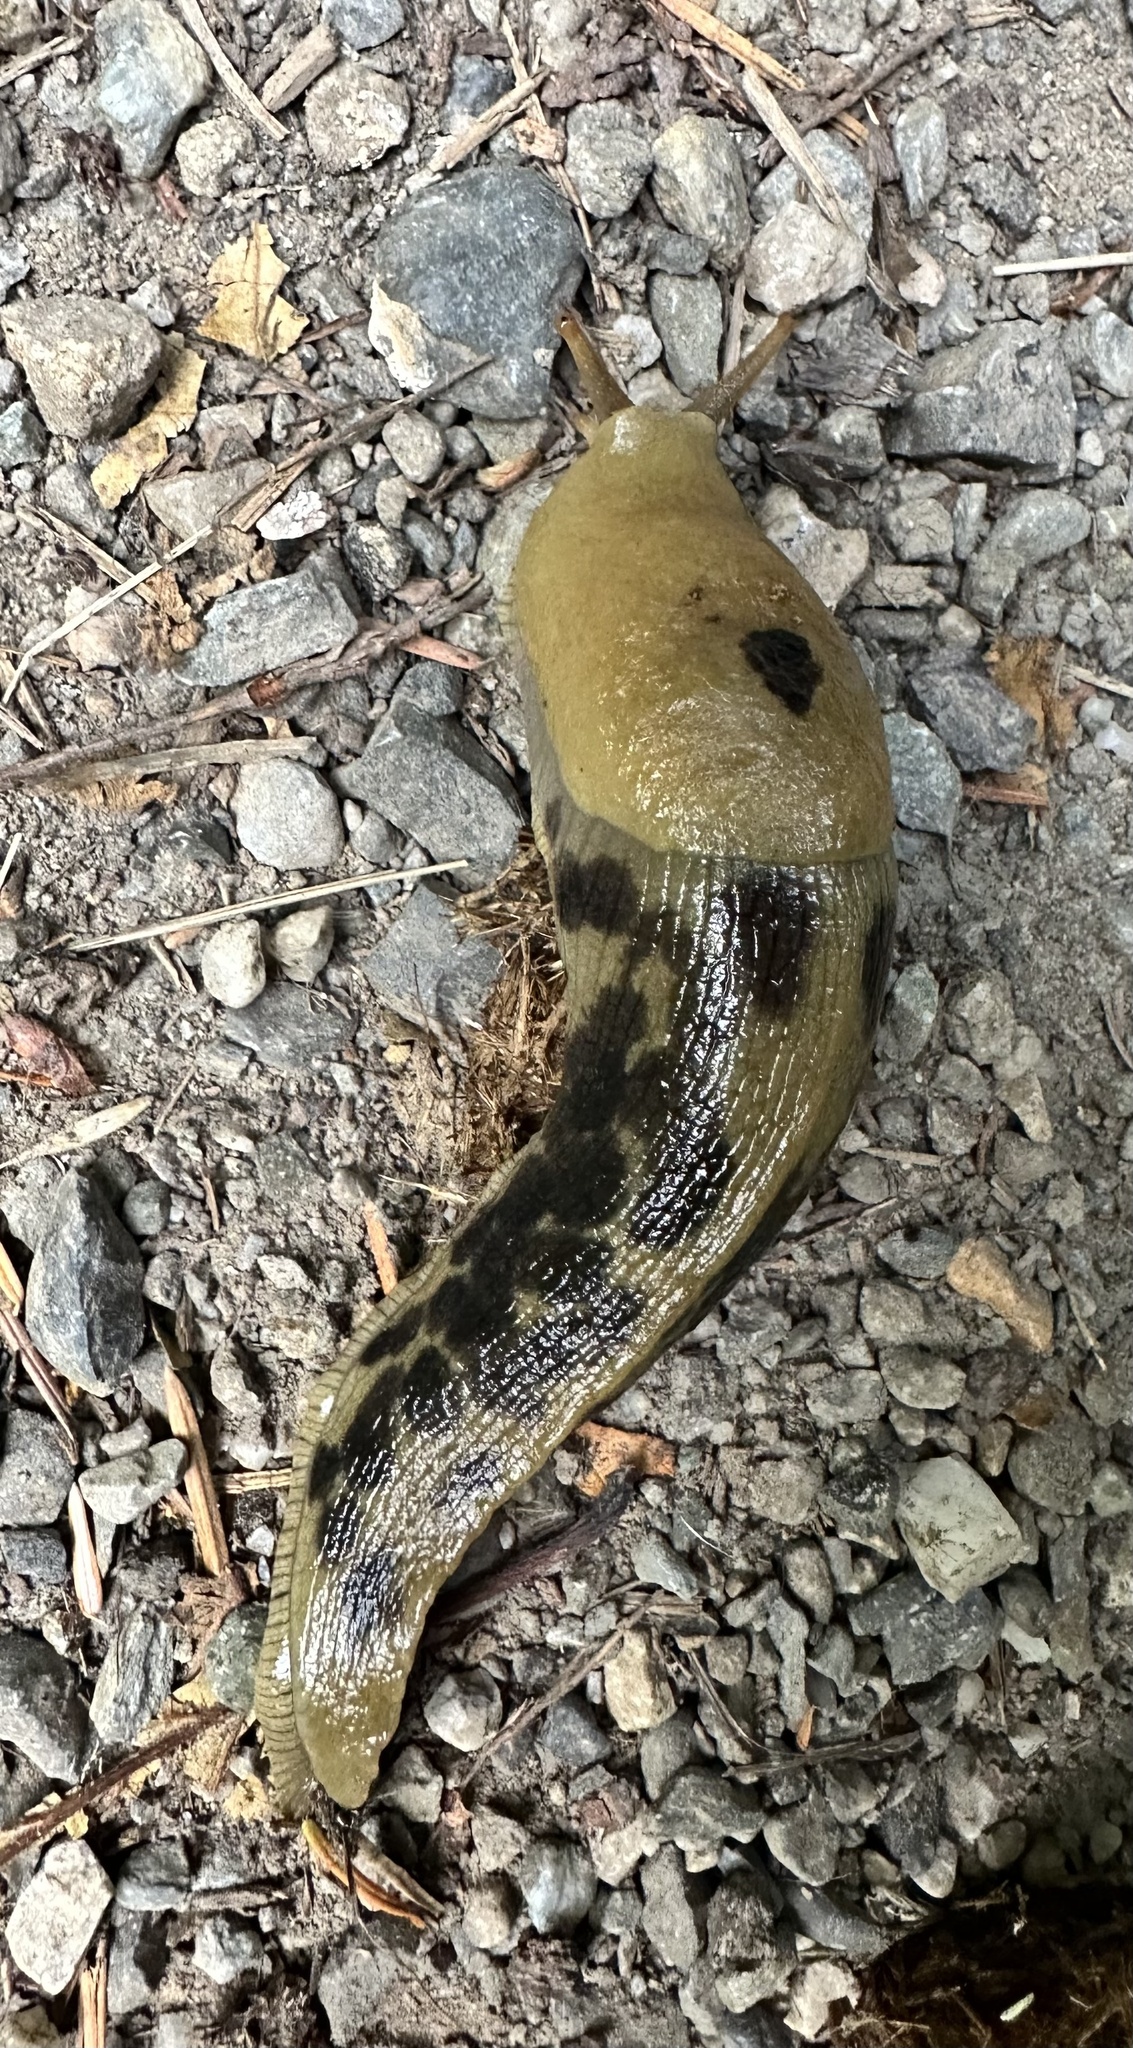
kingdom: Animalia
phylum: Mollusca
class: Gastropoda
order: Stylommatophora
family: Ariolimacidae
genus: Ariolimax
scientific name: Ariolimax columbianus
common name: Pacific banana slug
